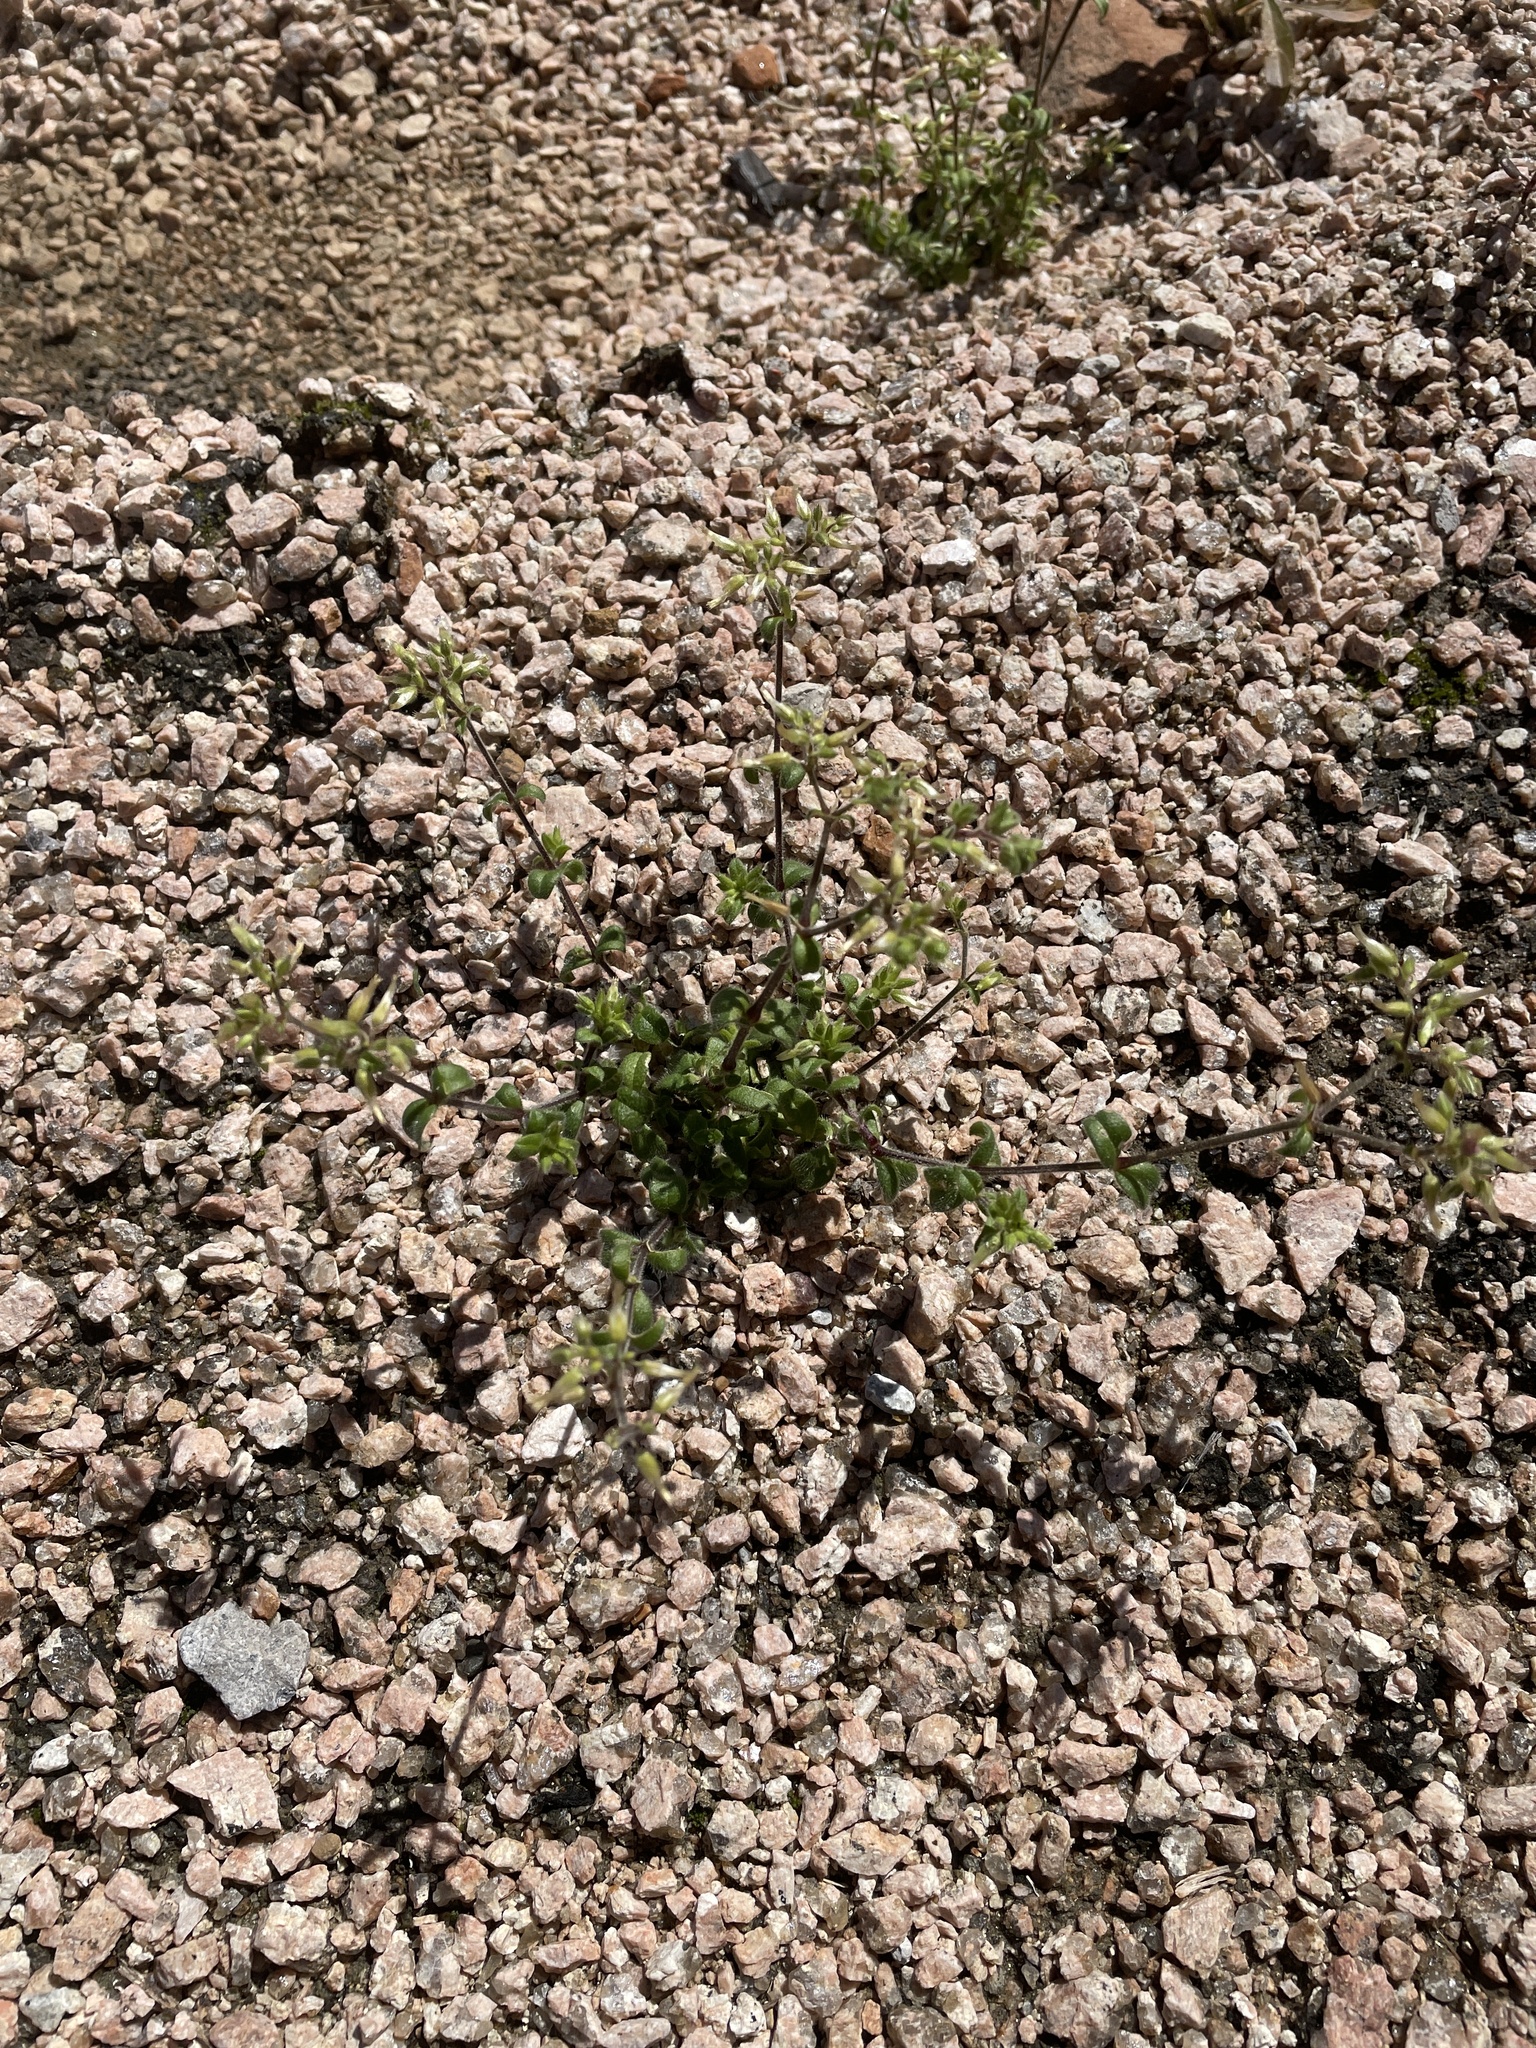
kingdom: Plantae
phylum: Tracheophyta
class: Magnoliopsida
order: Caryophyllales
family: Caryophyllaceae
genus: Cerastium
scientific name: Cerastium glomeratum
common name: Sticky chickweed
